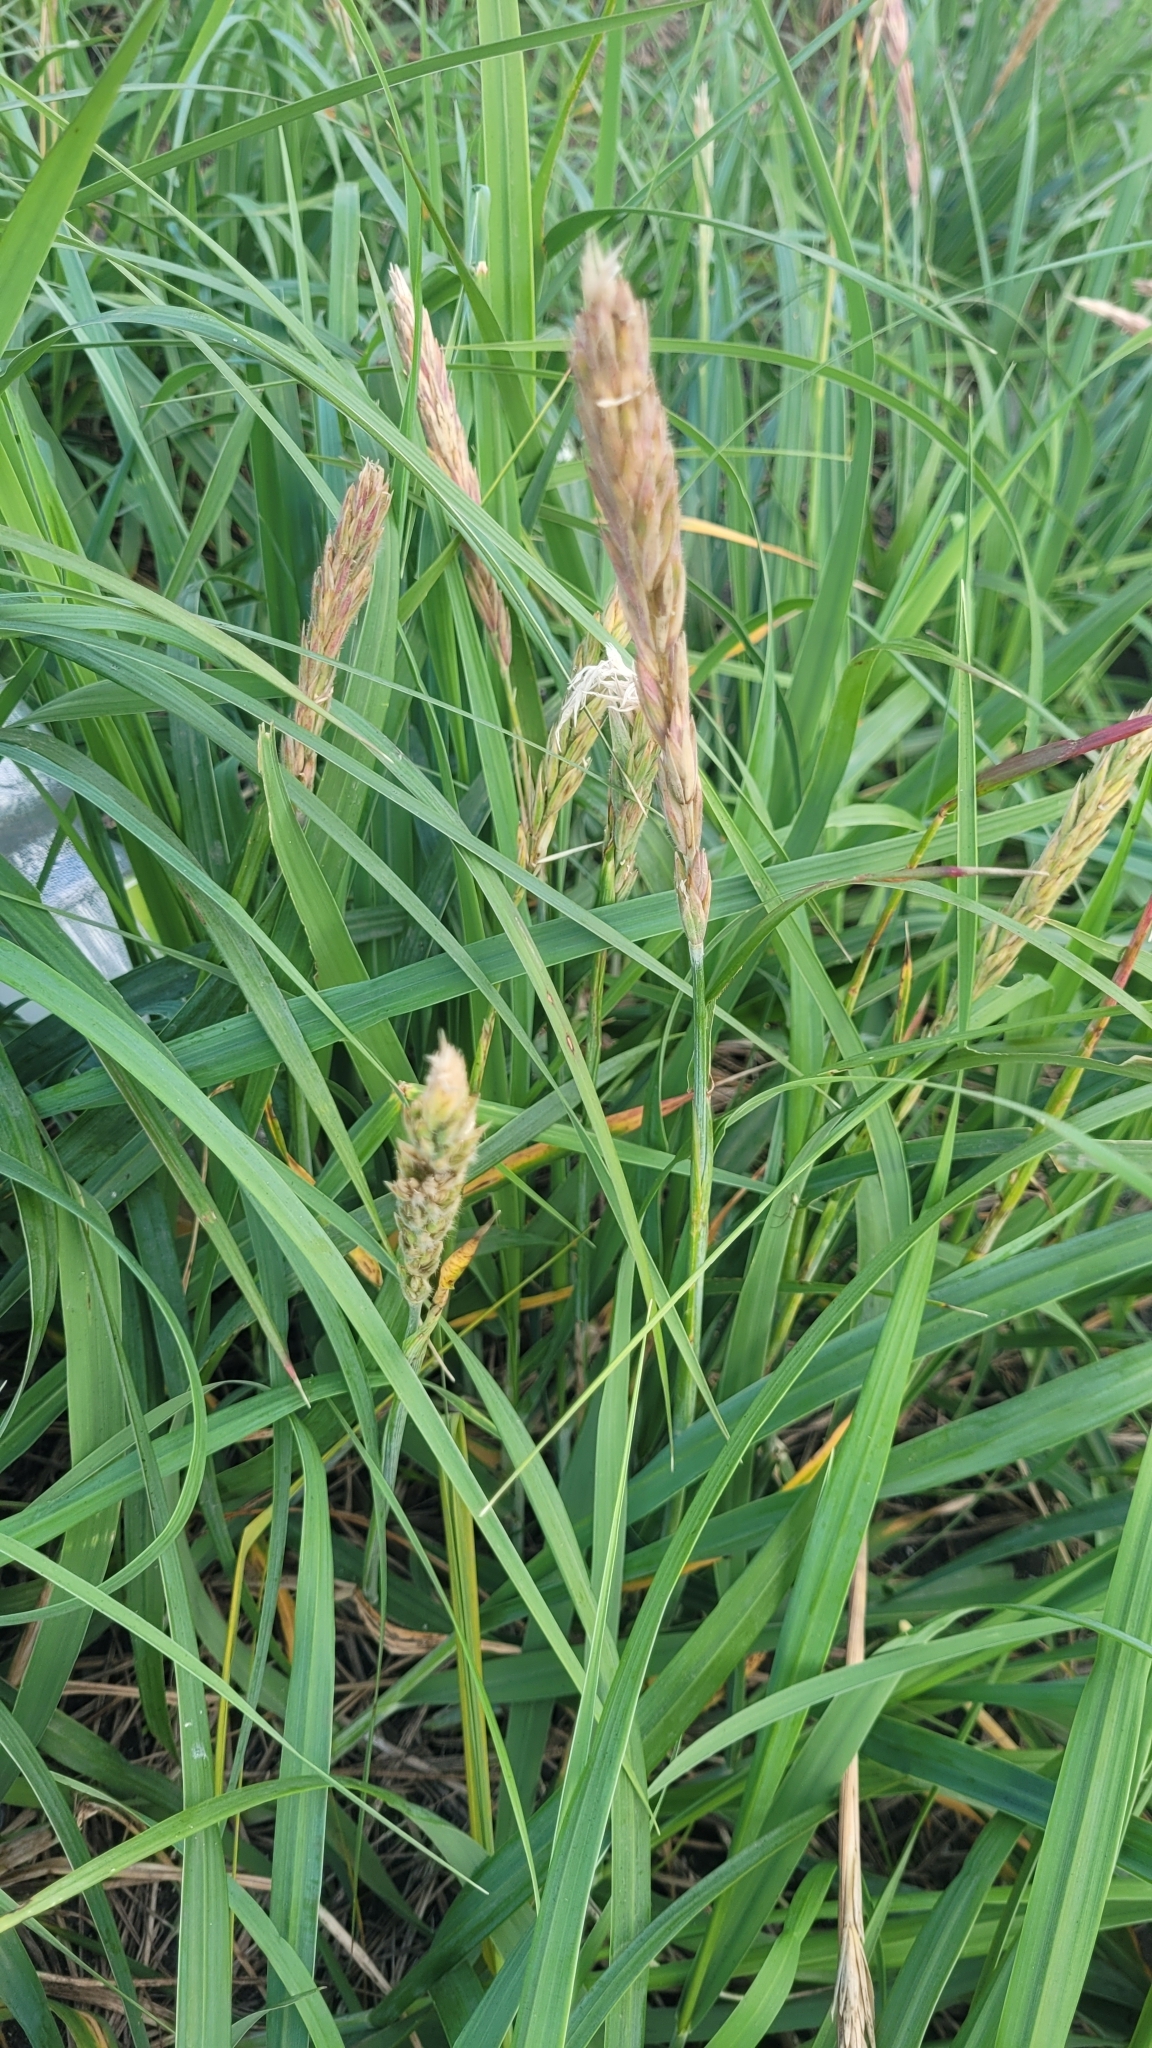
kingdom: Plantae
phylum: Tracheophyta
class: Liliopsida
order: Poales
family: Poaceae
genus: Leymus
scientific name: Leymus mollis
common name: American dune grass
